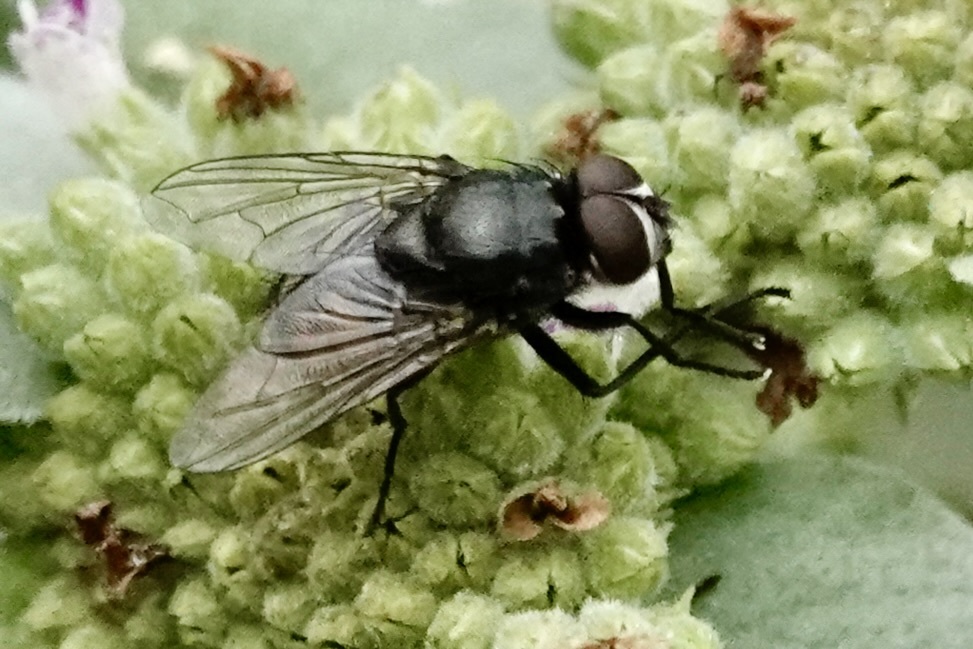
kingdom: Animalia
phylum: Arthropoda
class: Insecta
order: Diptera
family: Muscidae
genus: Musca
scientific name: Musca autumnalis
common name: Face fly
